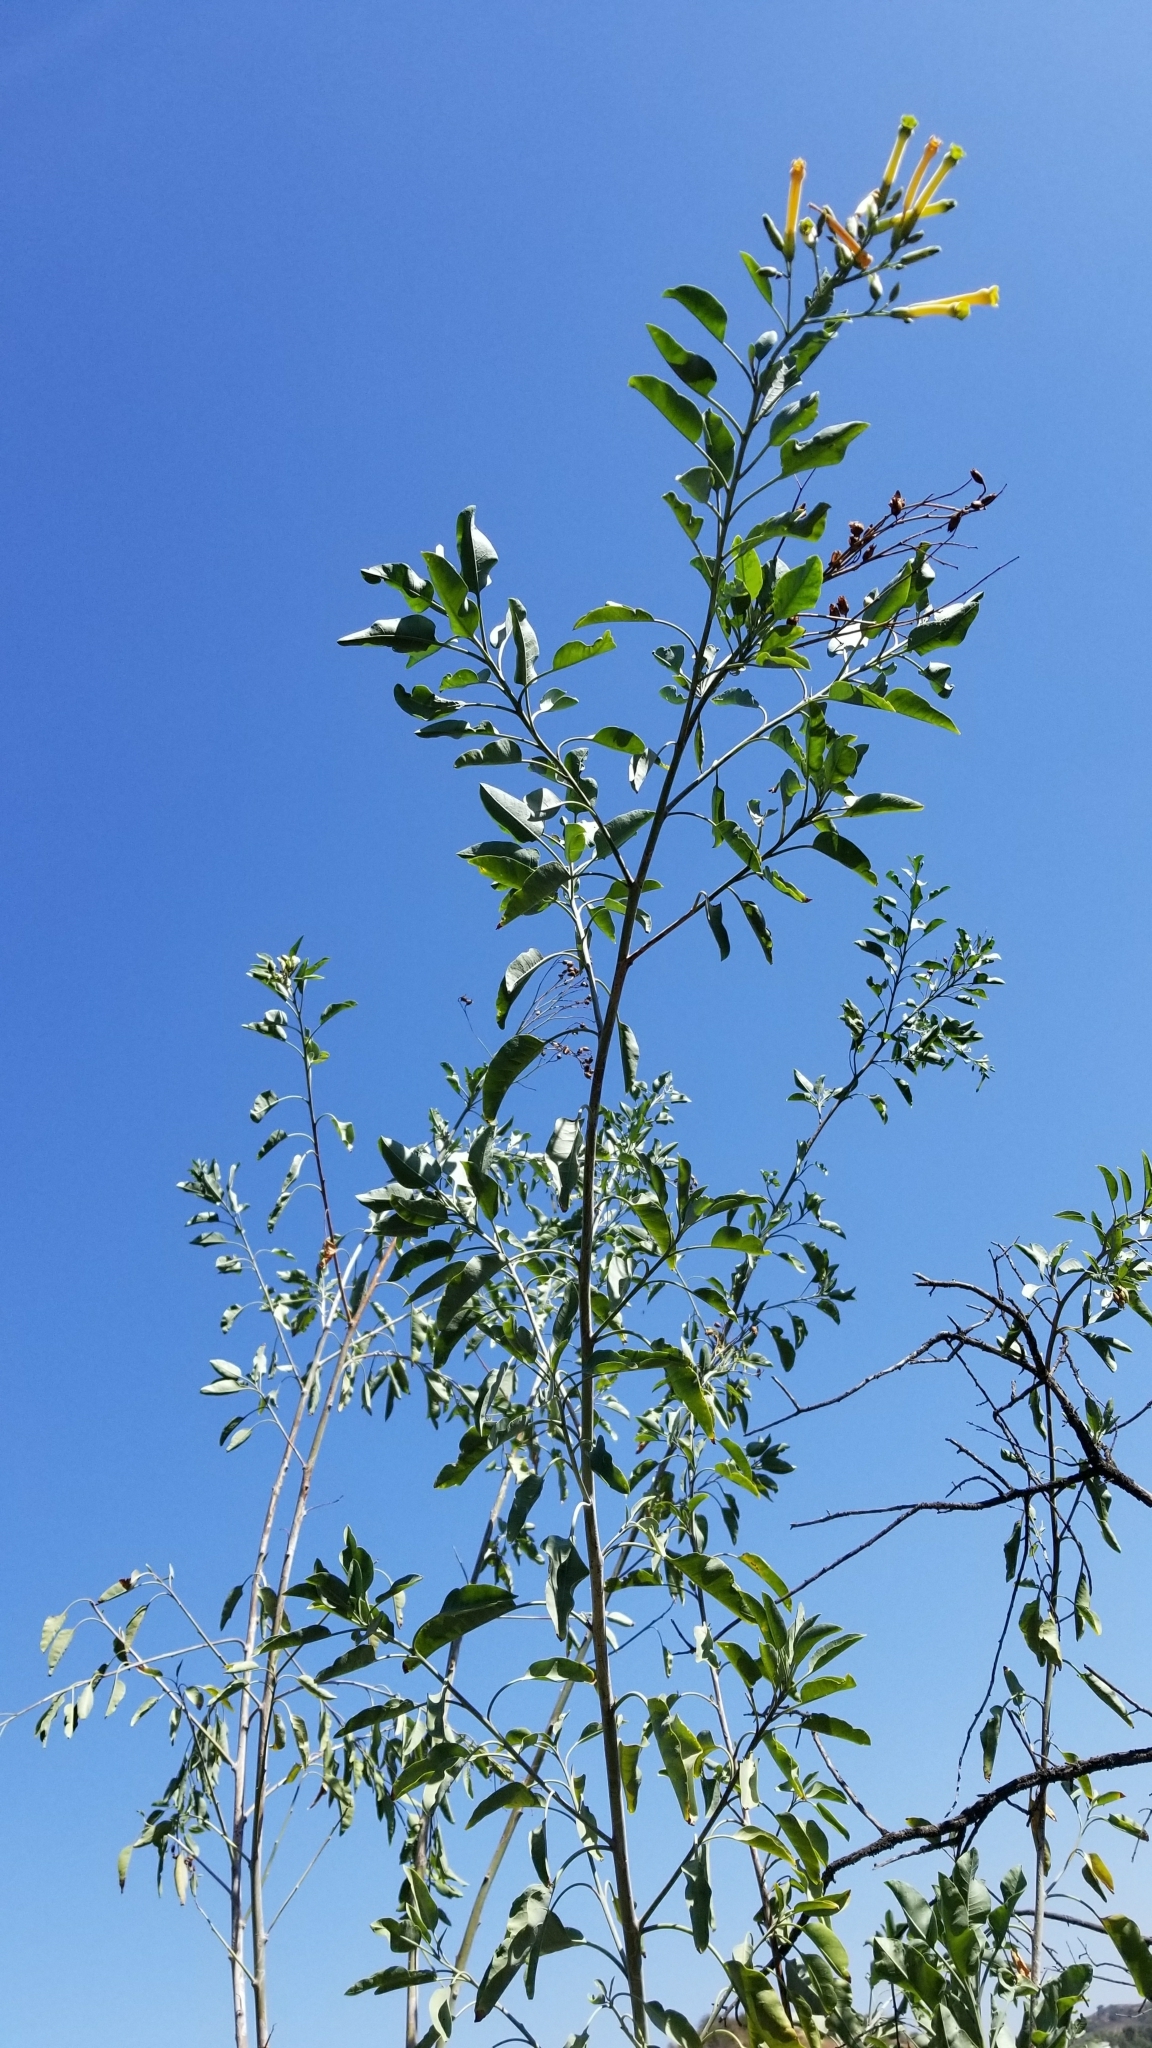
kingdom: Plantae
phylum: Tracheophyta
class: Magnoliopsida
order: Solanales
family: Solanaceae
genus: Nicotiana
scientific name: Nicotiana glauca
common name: Tree tobacco
